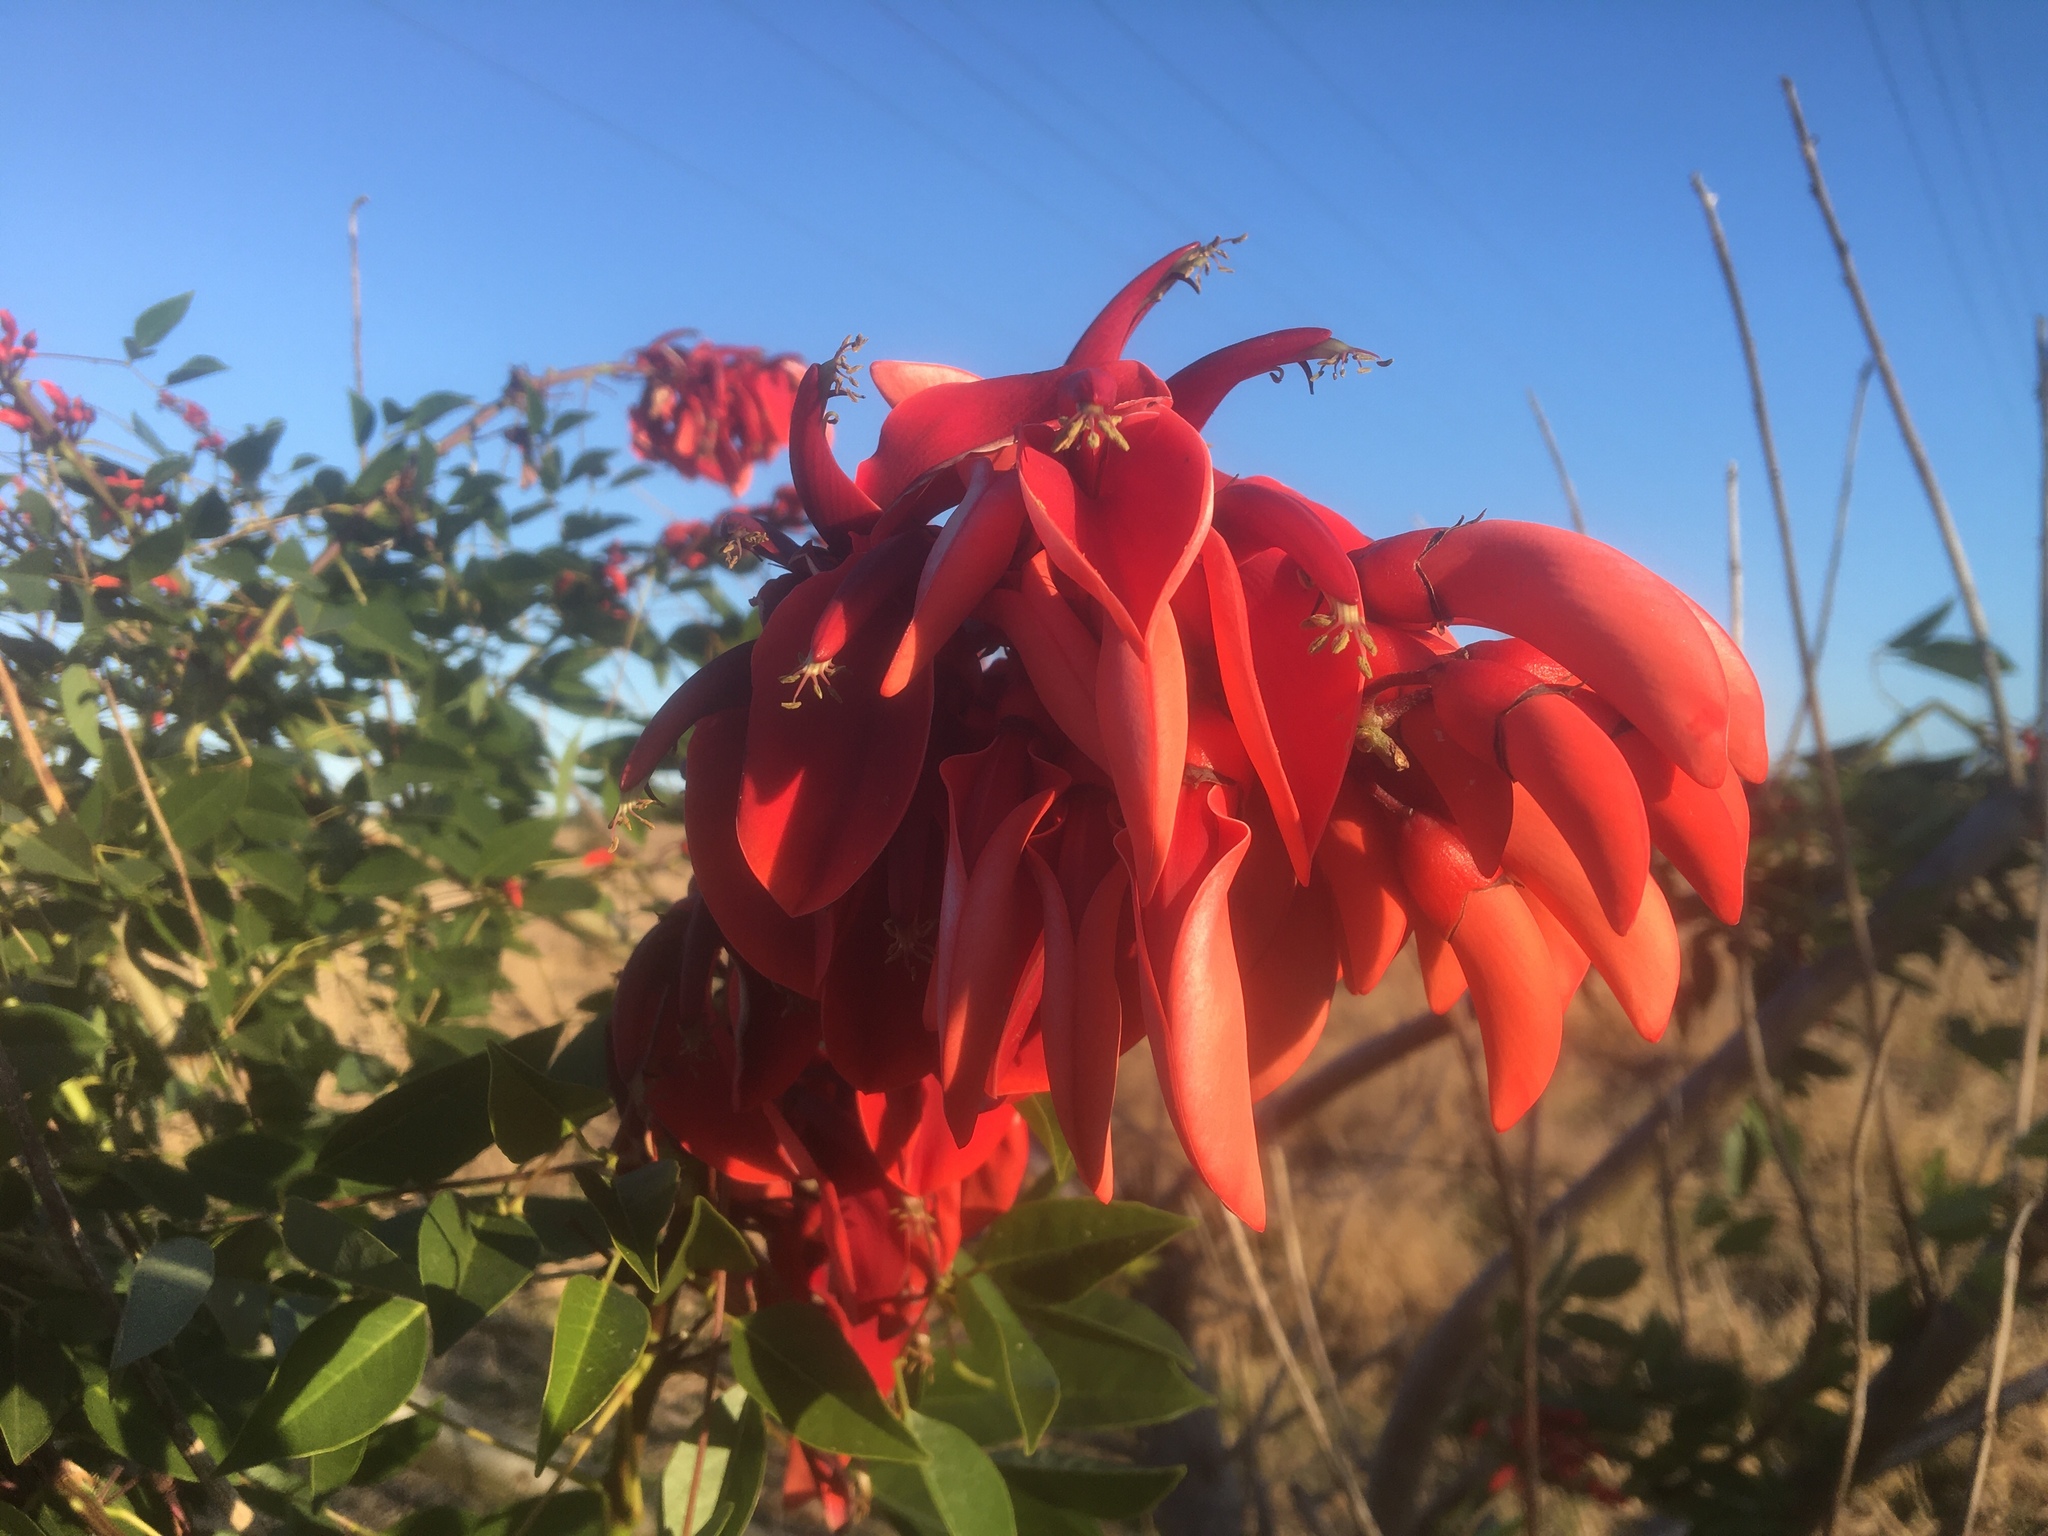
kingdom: Plantae
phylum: Tracheophyta
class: Magnoliopsida
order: Fabales
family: Fabaceae
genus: Erythrina
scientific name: Erythrina crista-galli
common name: Cockspur coral tree
